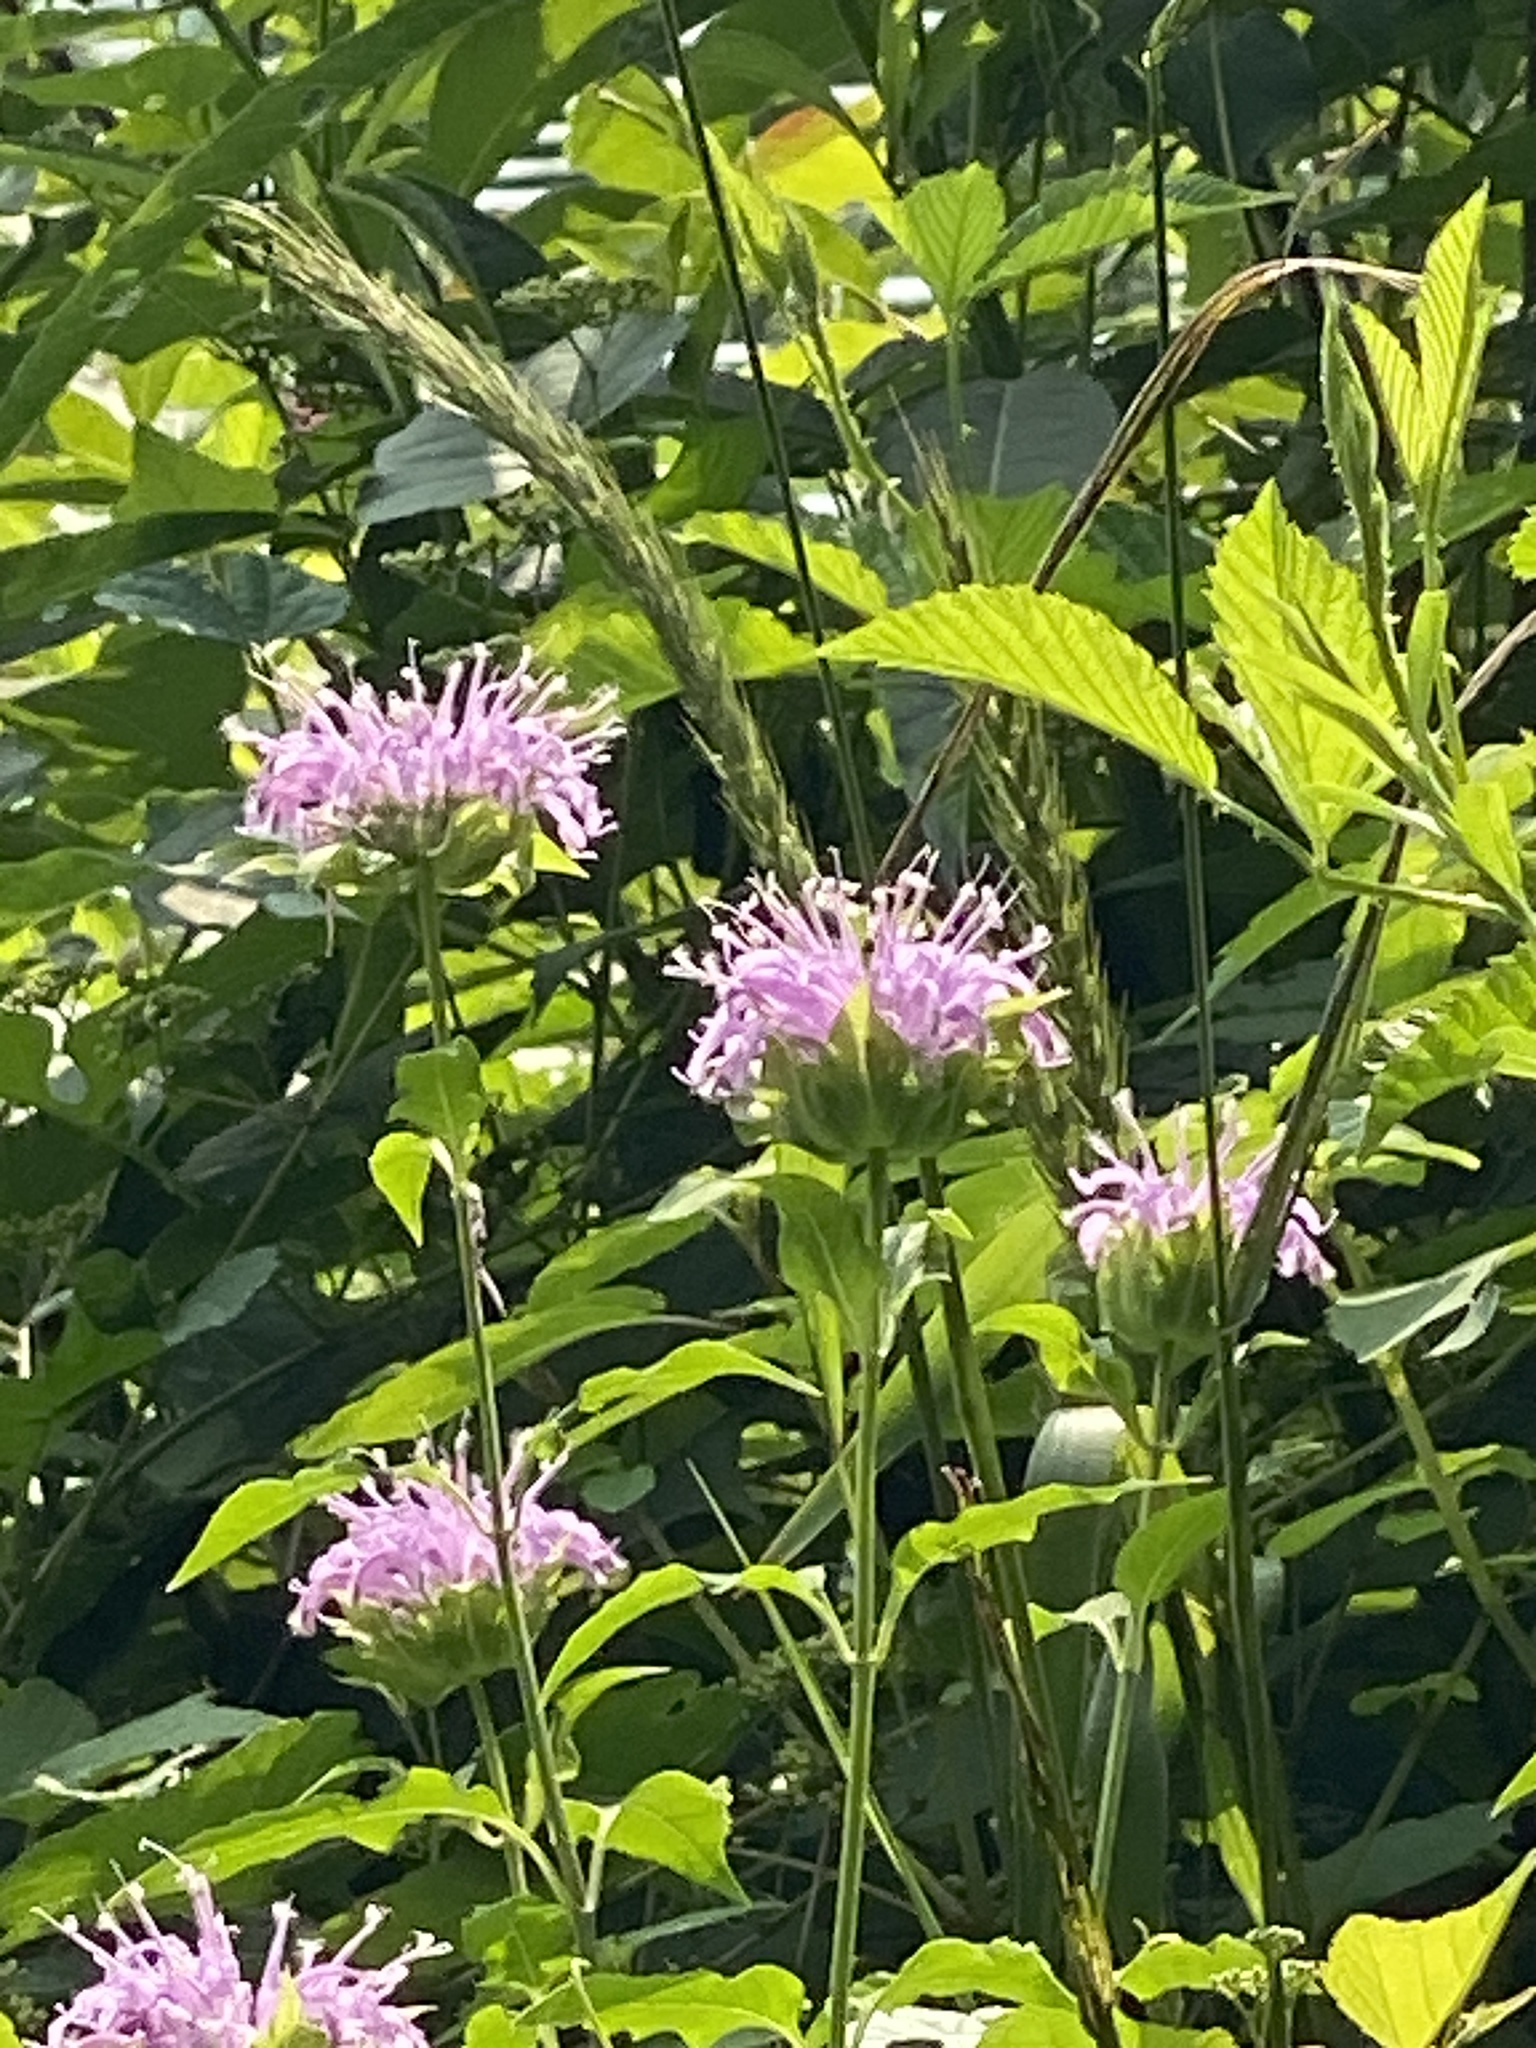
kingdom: Plantae
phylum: Tracheophyta
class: Magnoliopsida
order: Lamiales
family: Lamiaceae
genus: Monarda
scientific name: Monarda fistulosa
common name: Purple beebalm
